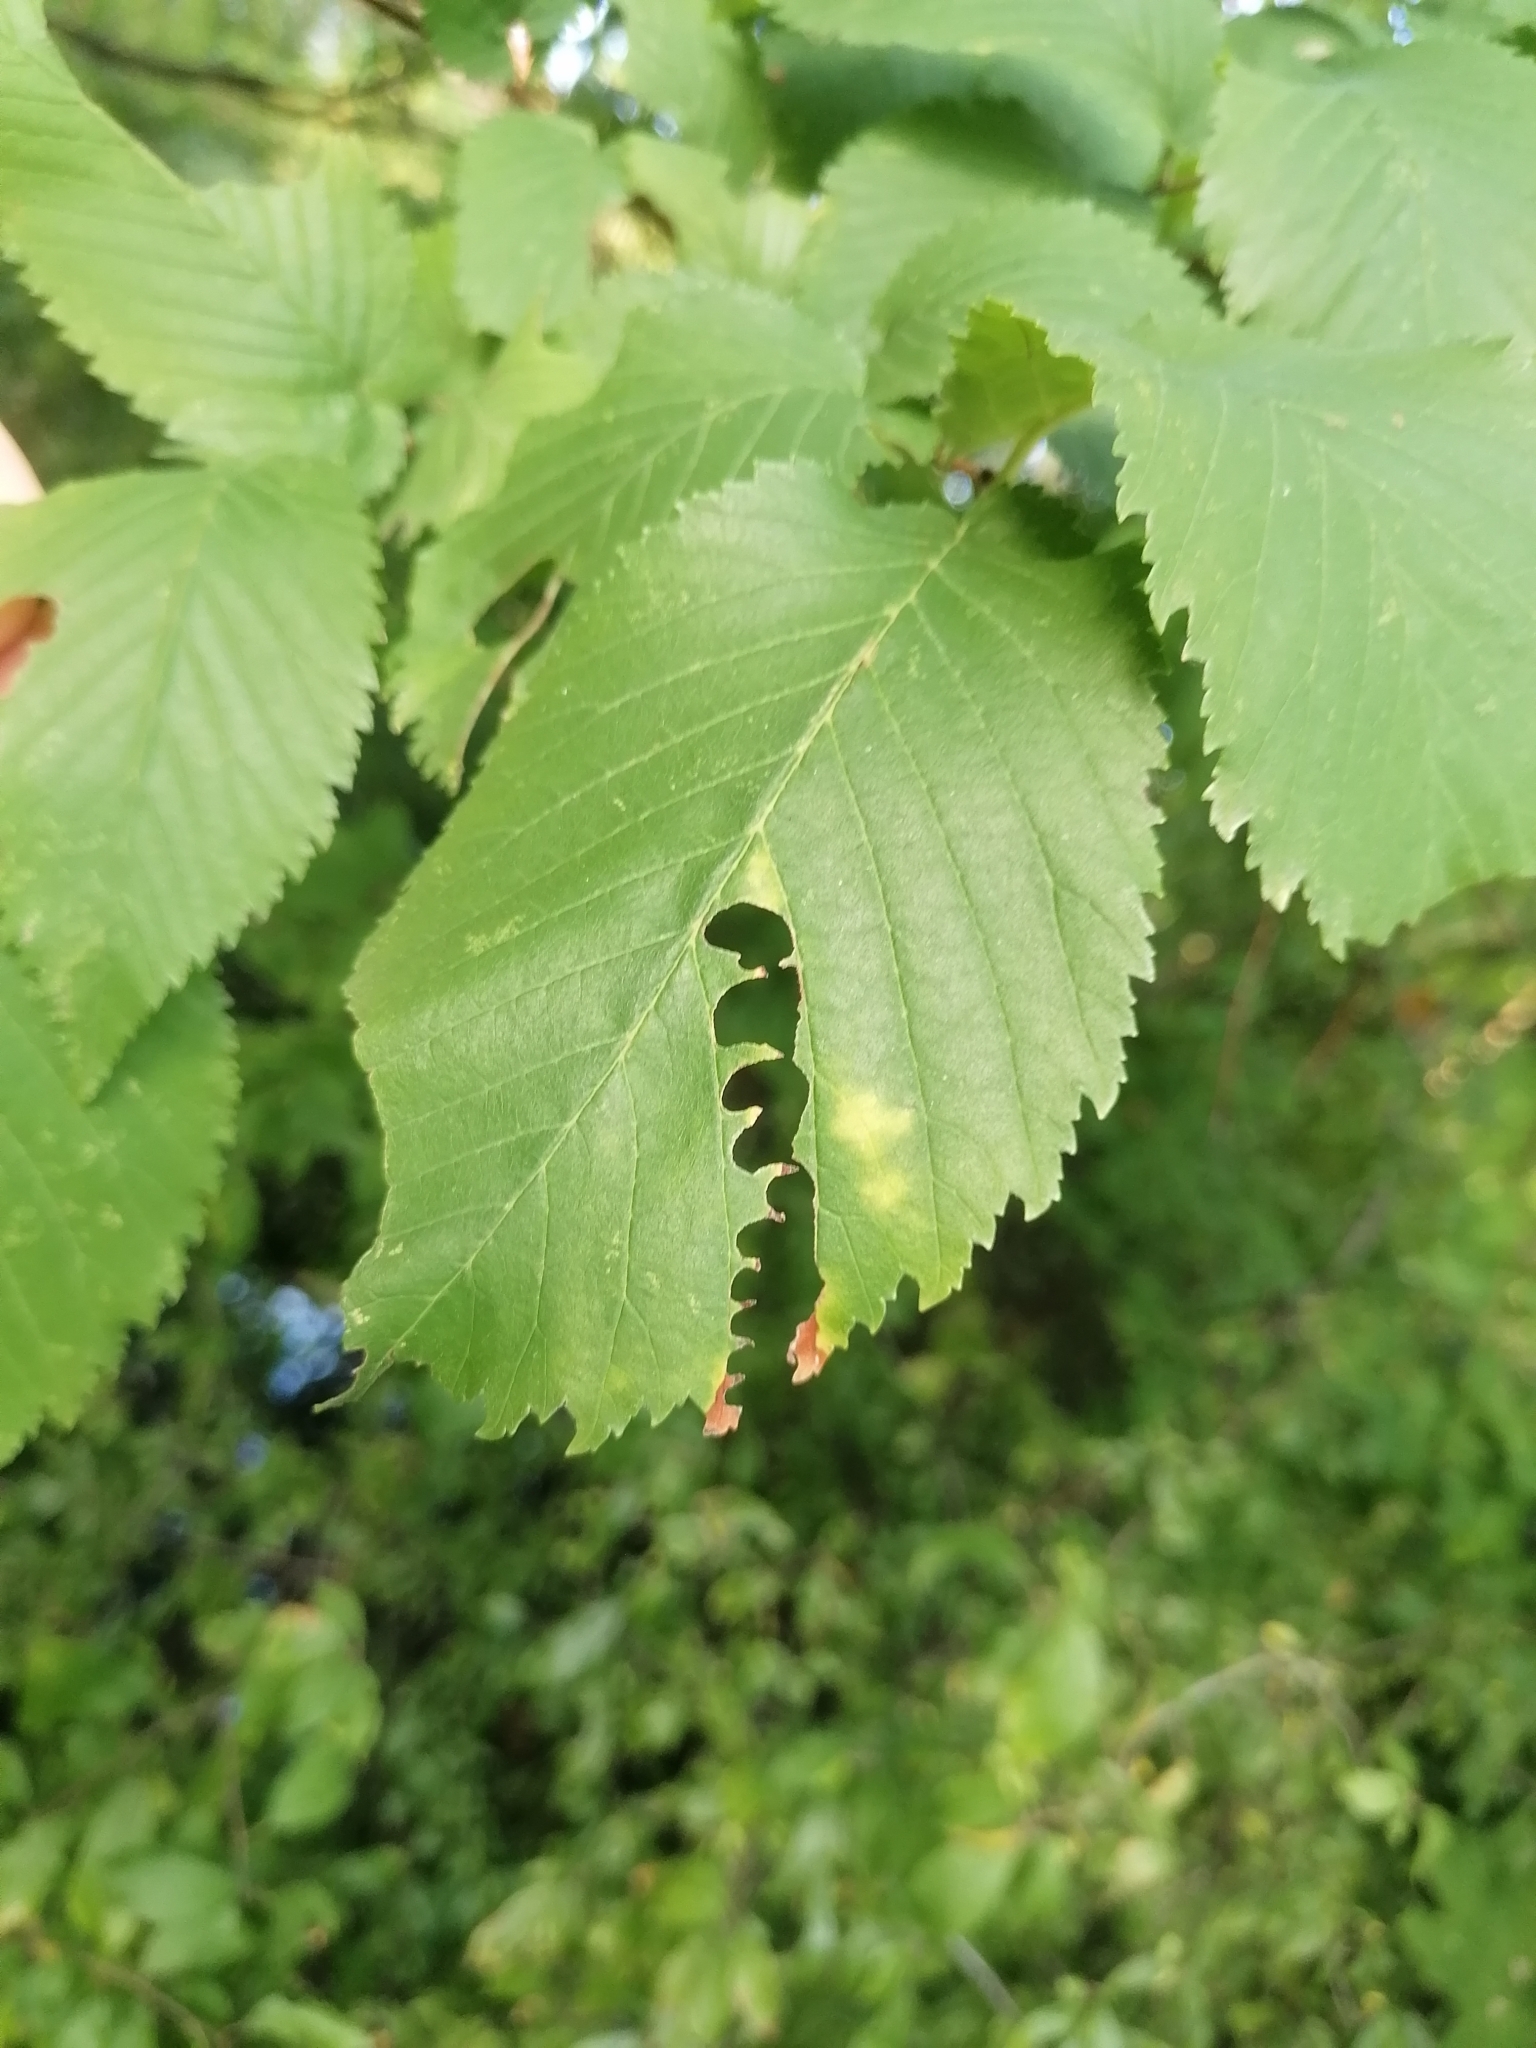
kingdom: Animalia
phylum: Arthropoda
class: Insecta
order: Hymenoptera
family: Argidae
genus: Aproceros
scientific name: Aproceros leucopoda
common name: Zig-zag elm sawfly
